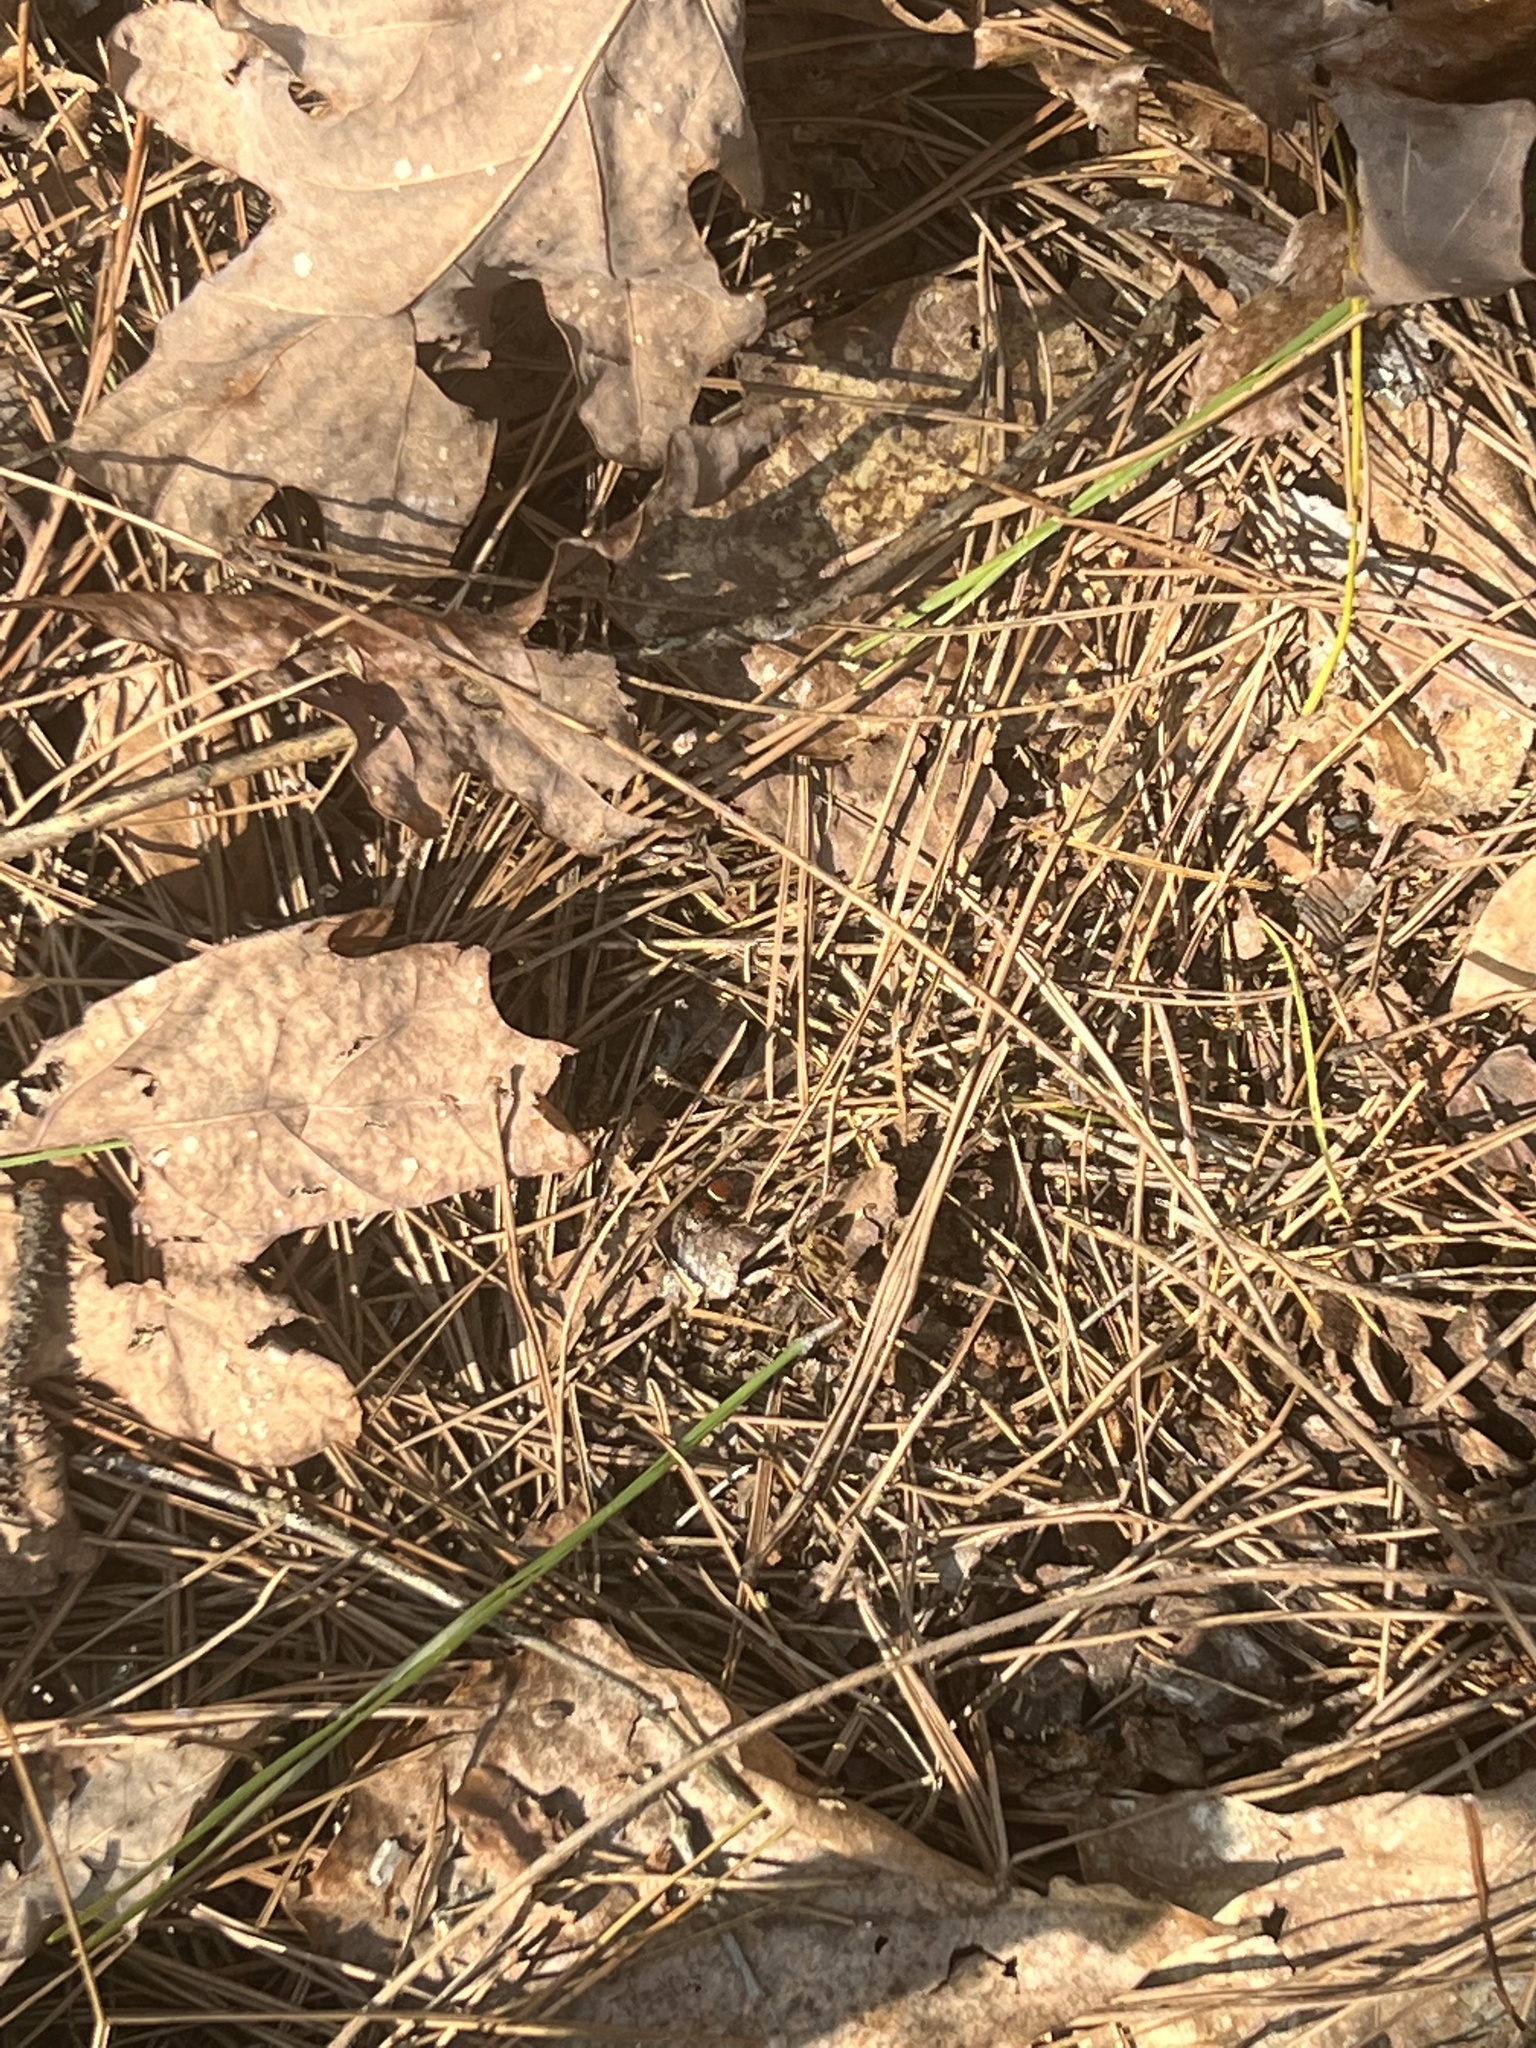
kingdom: Animalia
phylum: Arthropoda
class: Arachnida
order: Araneae
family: Salticidae
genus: Phidippus
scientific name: Phidippus whitmani
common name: Whitman's jumping spider
